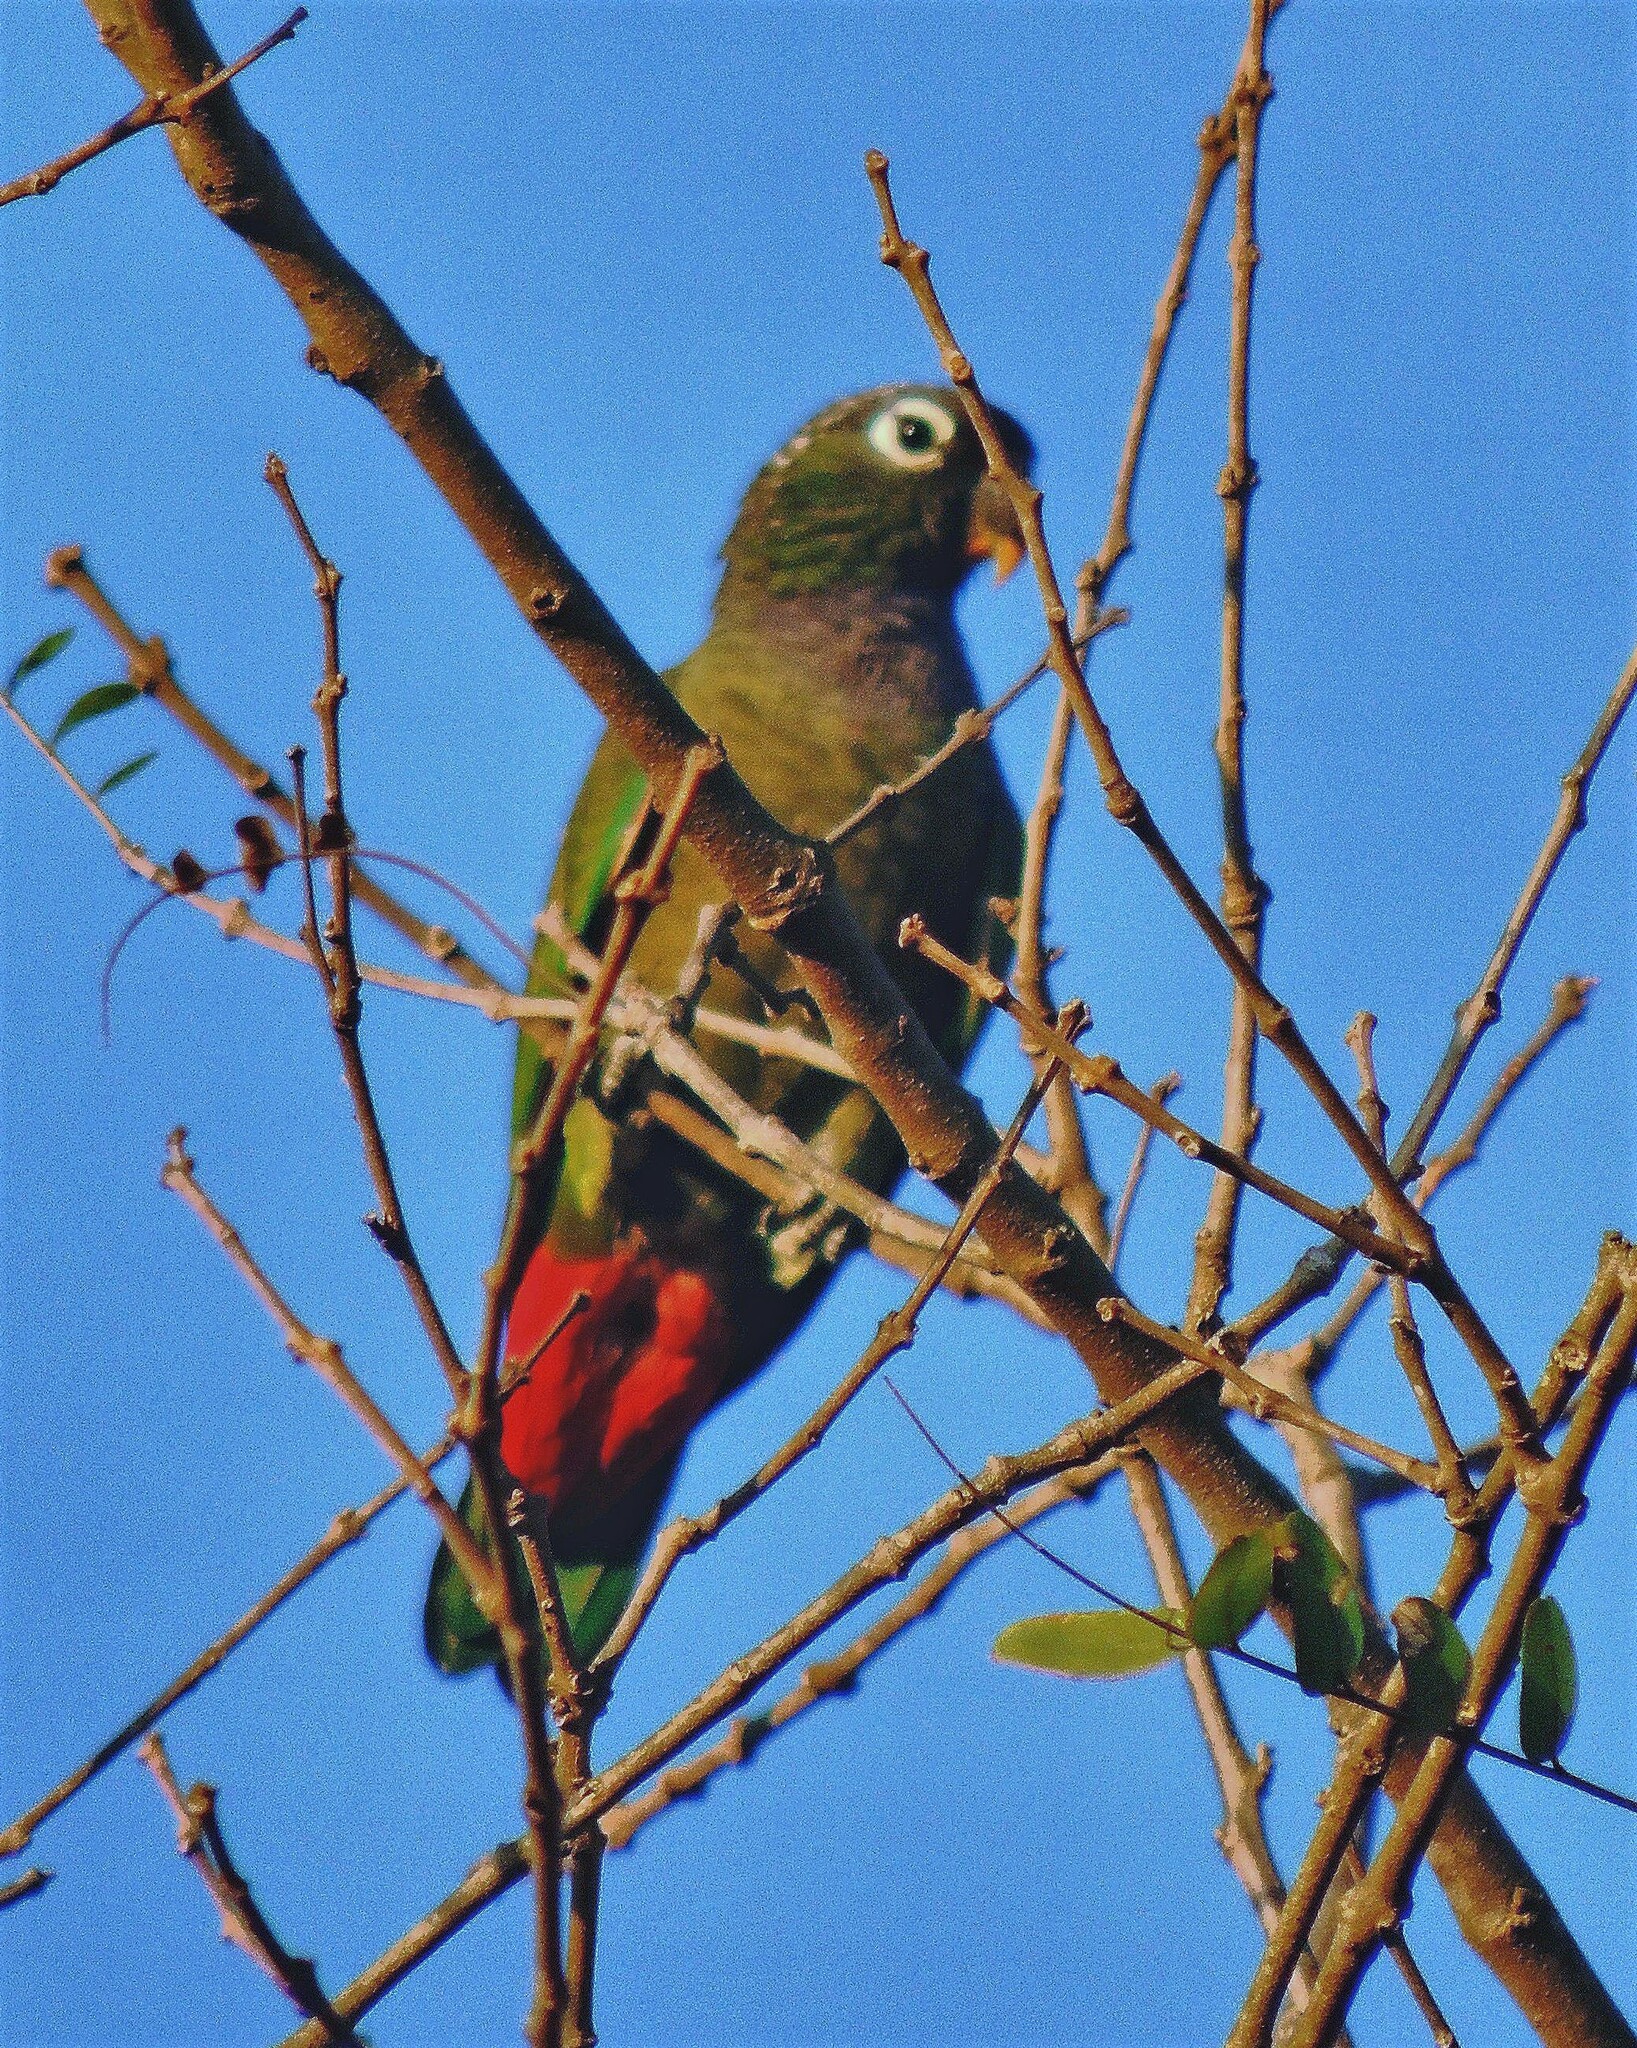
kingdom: Animalia
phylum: Chordata
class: Aves
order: Psittaciformes
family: Psittacidae
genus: Pionus
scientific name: Pionus maximiliani
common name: Scaly-headed parrot
